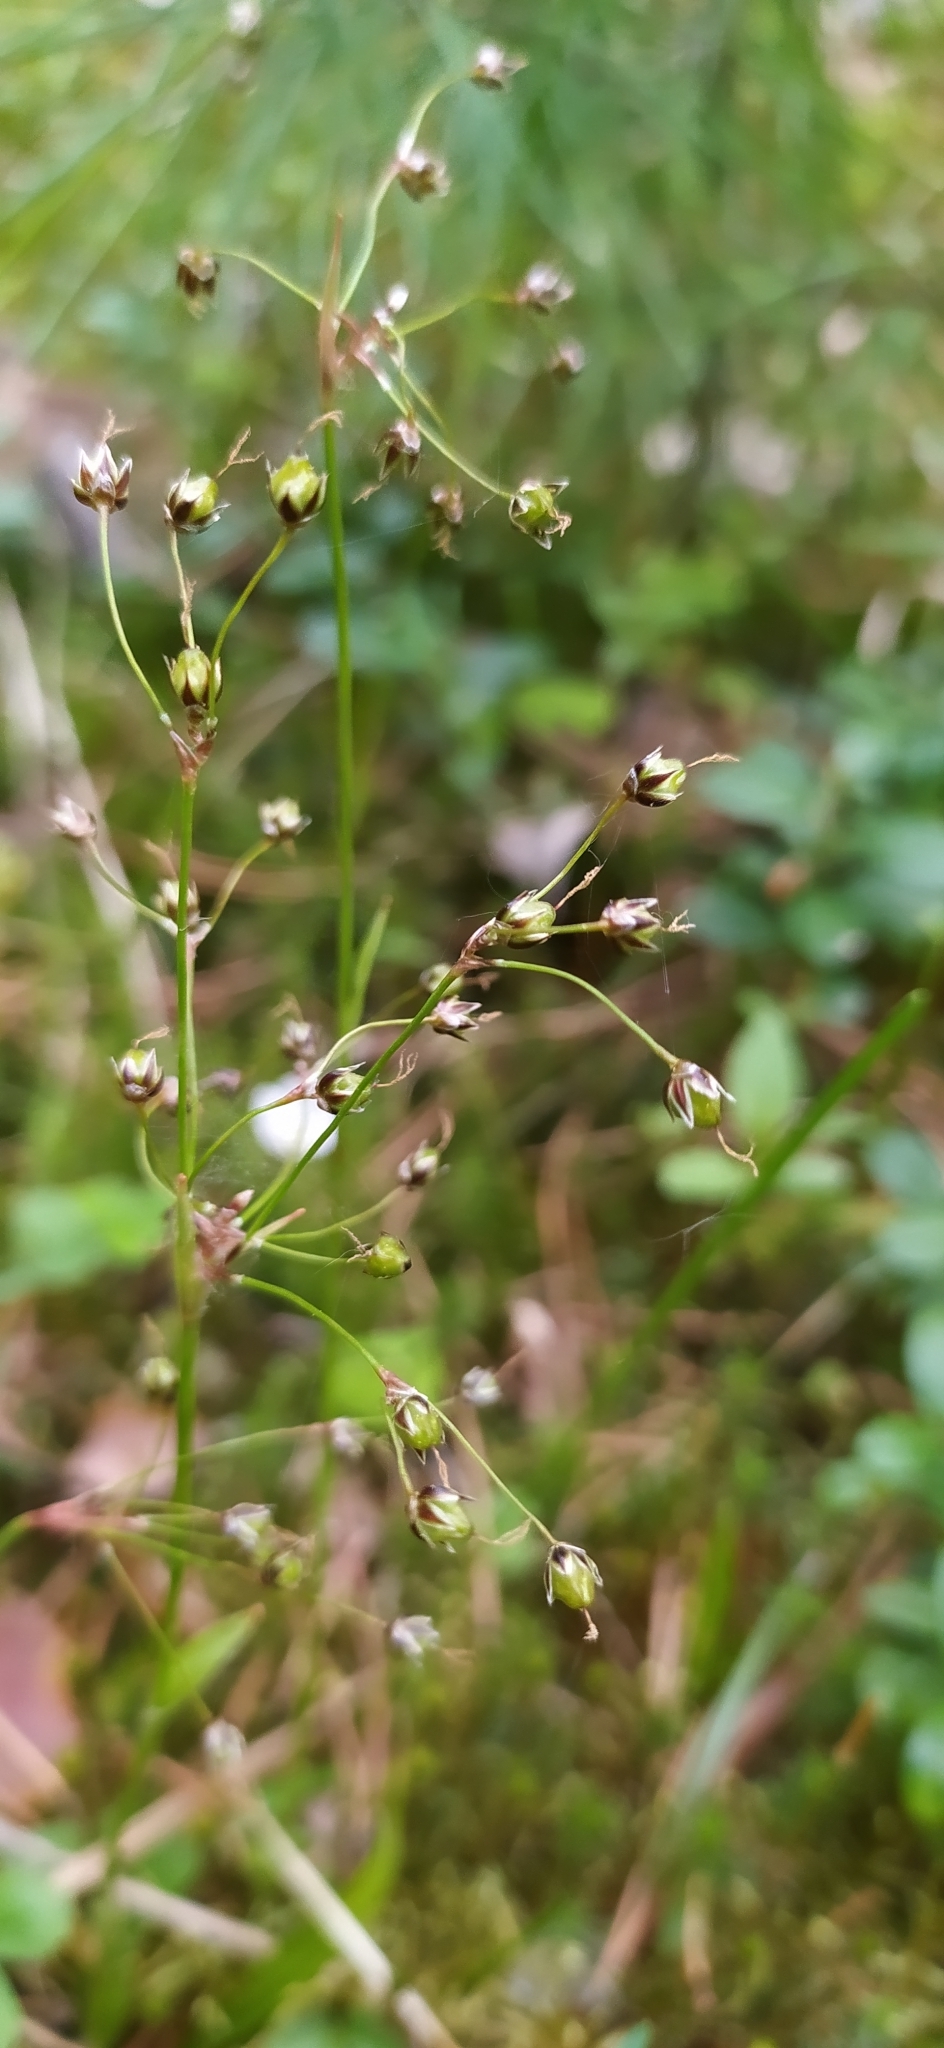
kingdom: Plantae
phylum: Tracheophyta
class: Liliopsida
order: Poales
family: Juncaceae
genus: Luzula
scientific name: Luzula pilosa
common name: Hairy wood-rush
